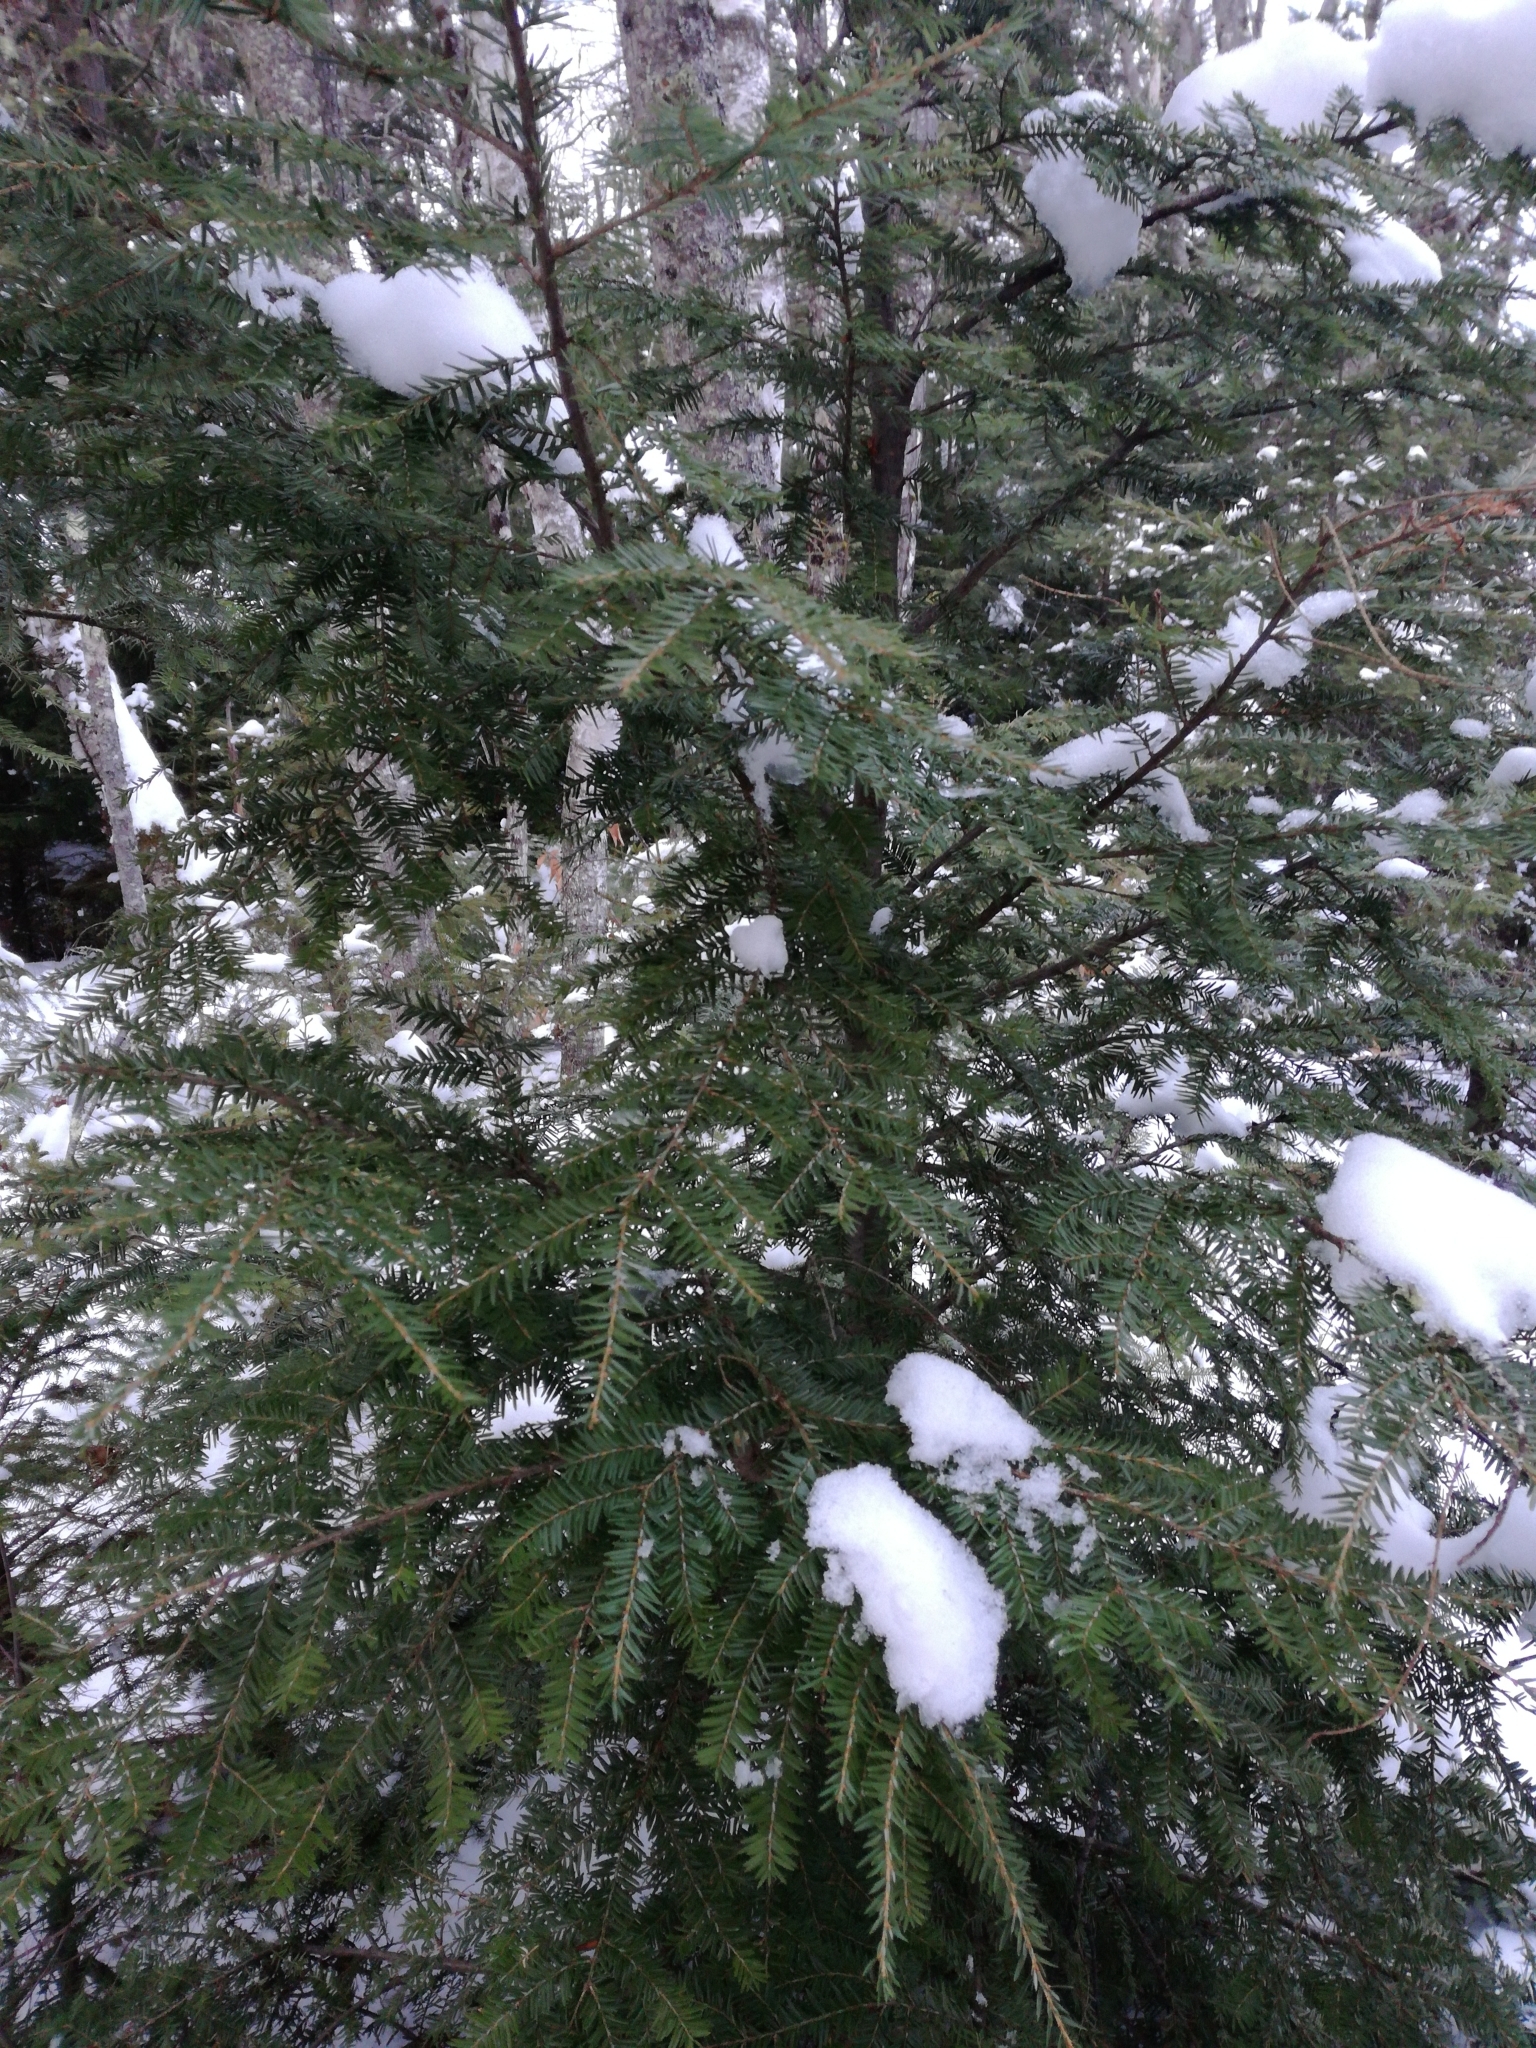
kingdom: Plantae
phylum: Tracheophyta
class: Pinopsida
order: Pinales
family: Pinaceae
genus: Tsuga
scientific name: Tsuga canadensis
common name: Eastern hemlock
